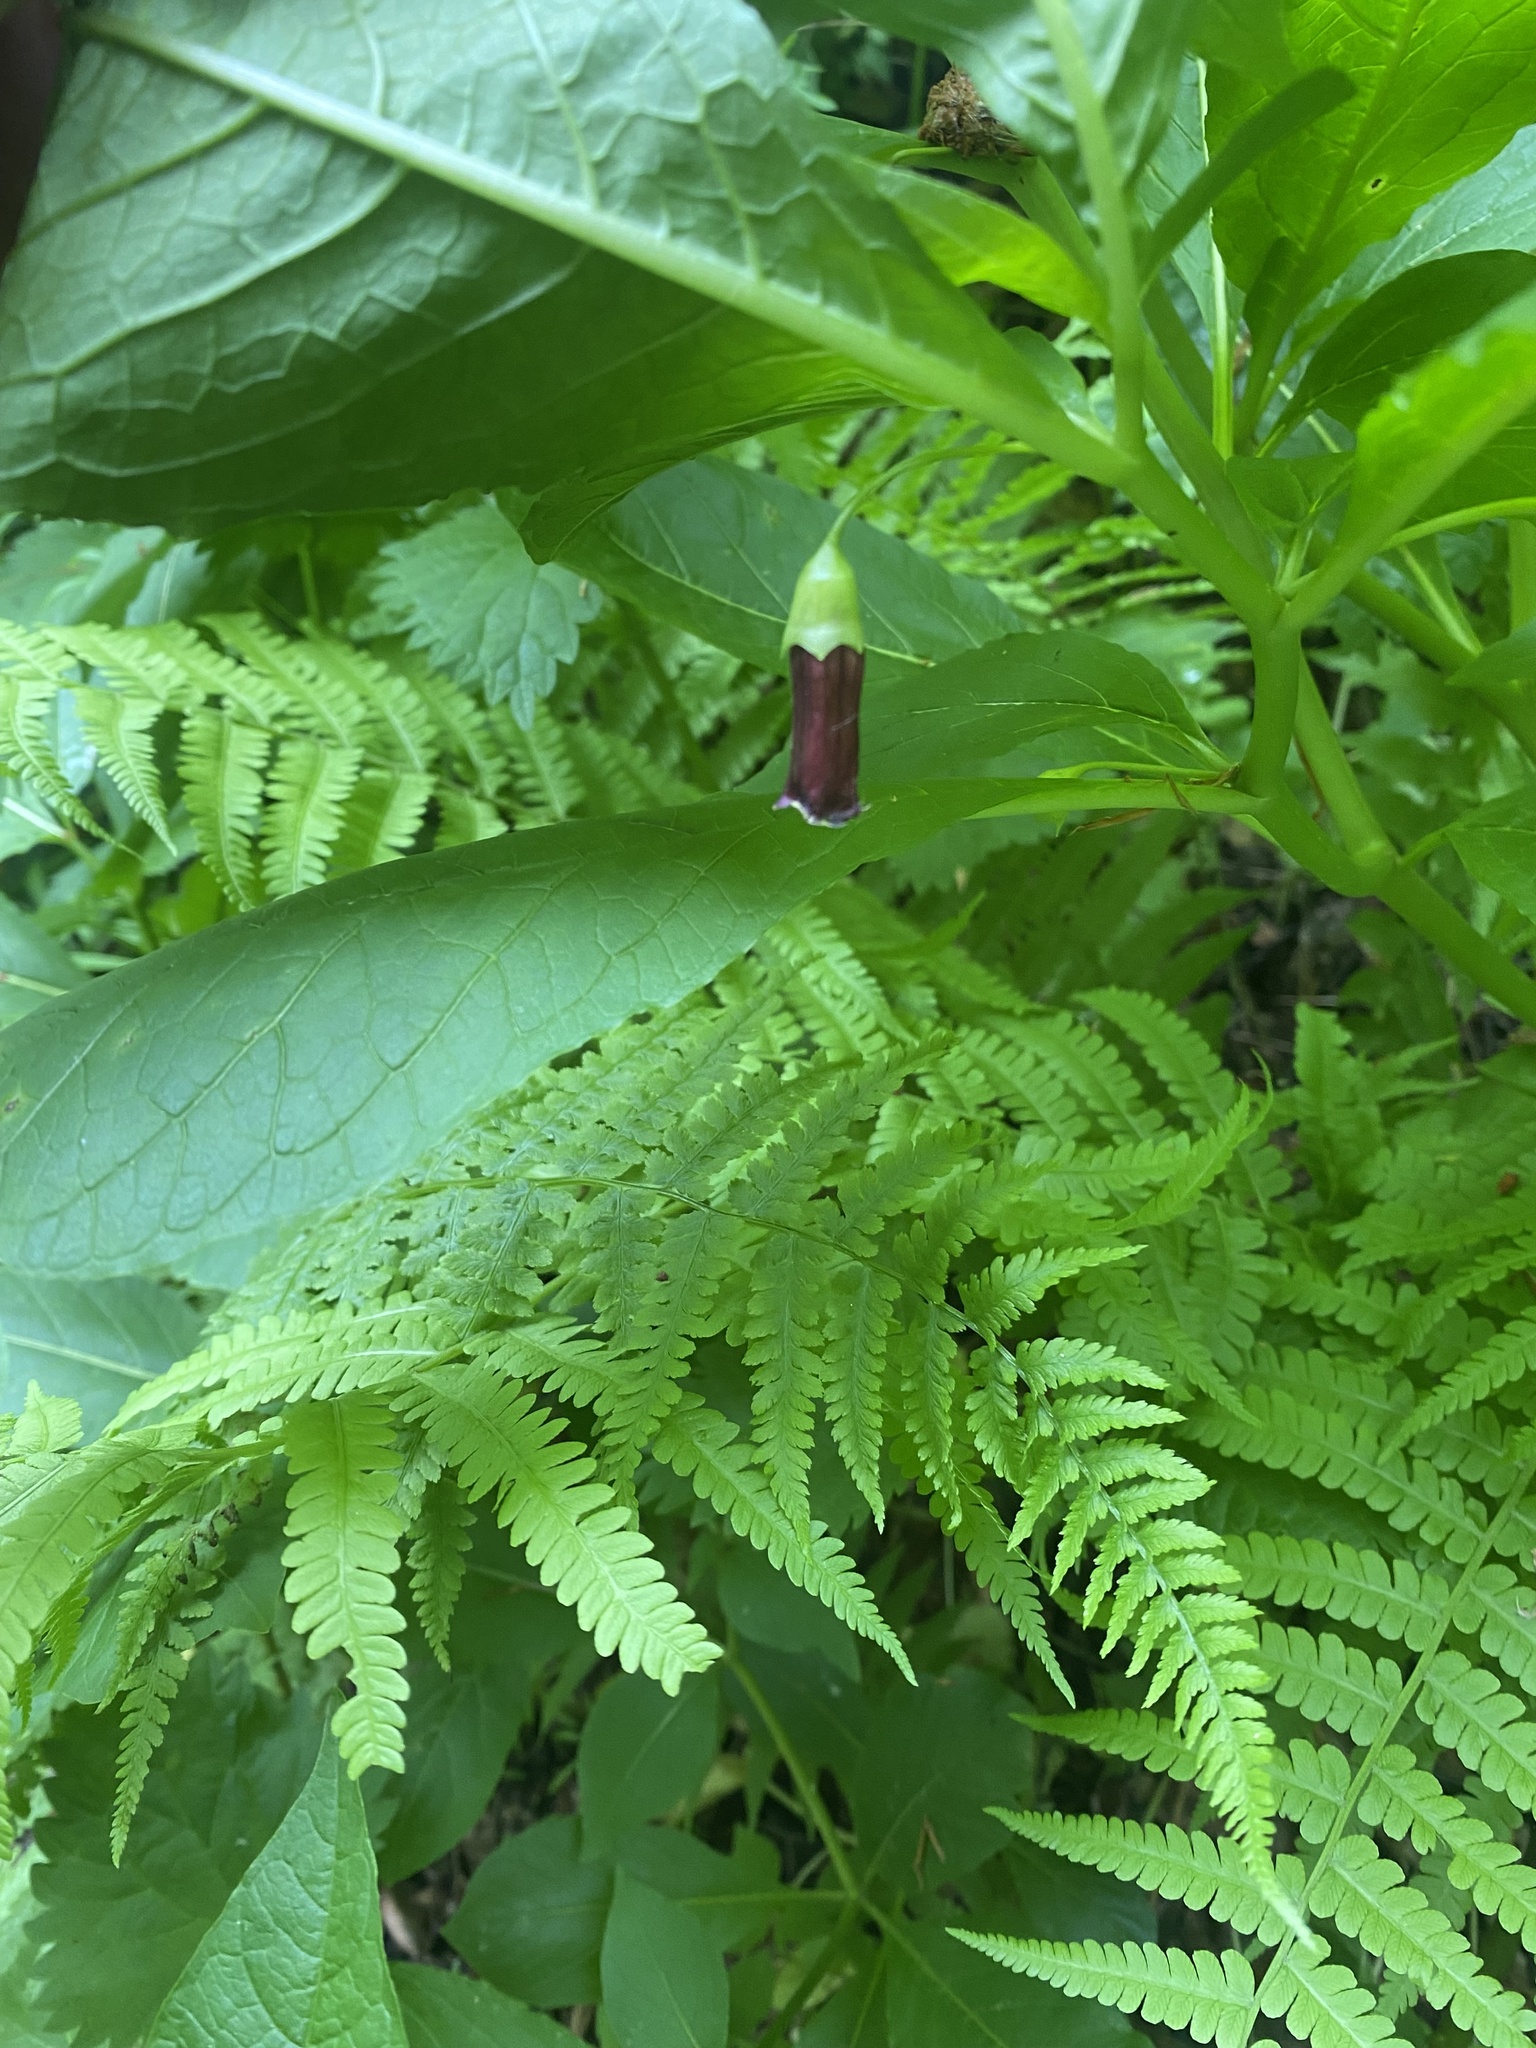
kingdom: Plantae
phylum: Tracheophyta
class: Magnoliopsida
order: Solanales
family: Solanaceae
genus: Scopolia
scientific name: Scopolia carniolica
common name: Scopolia
